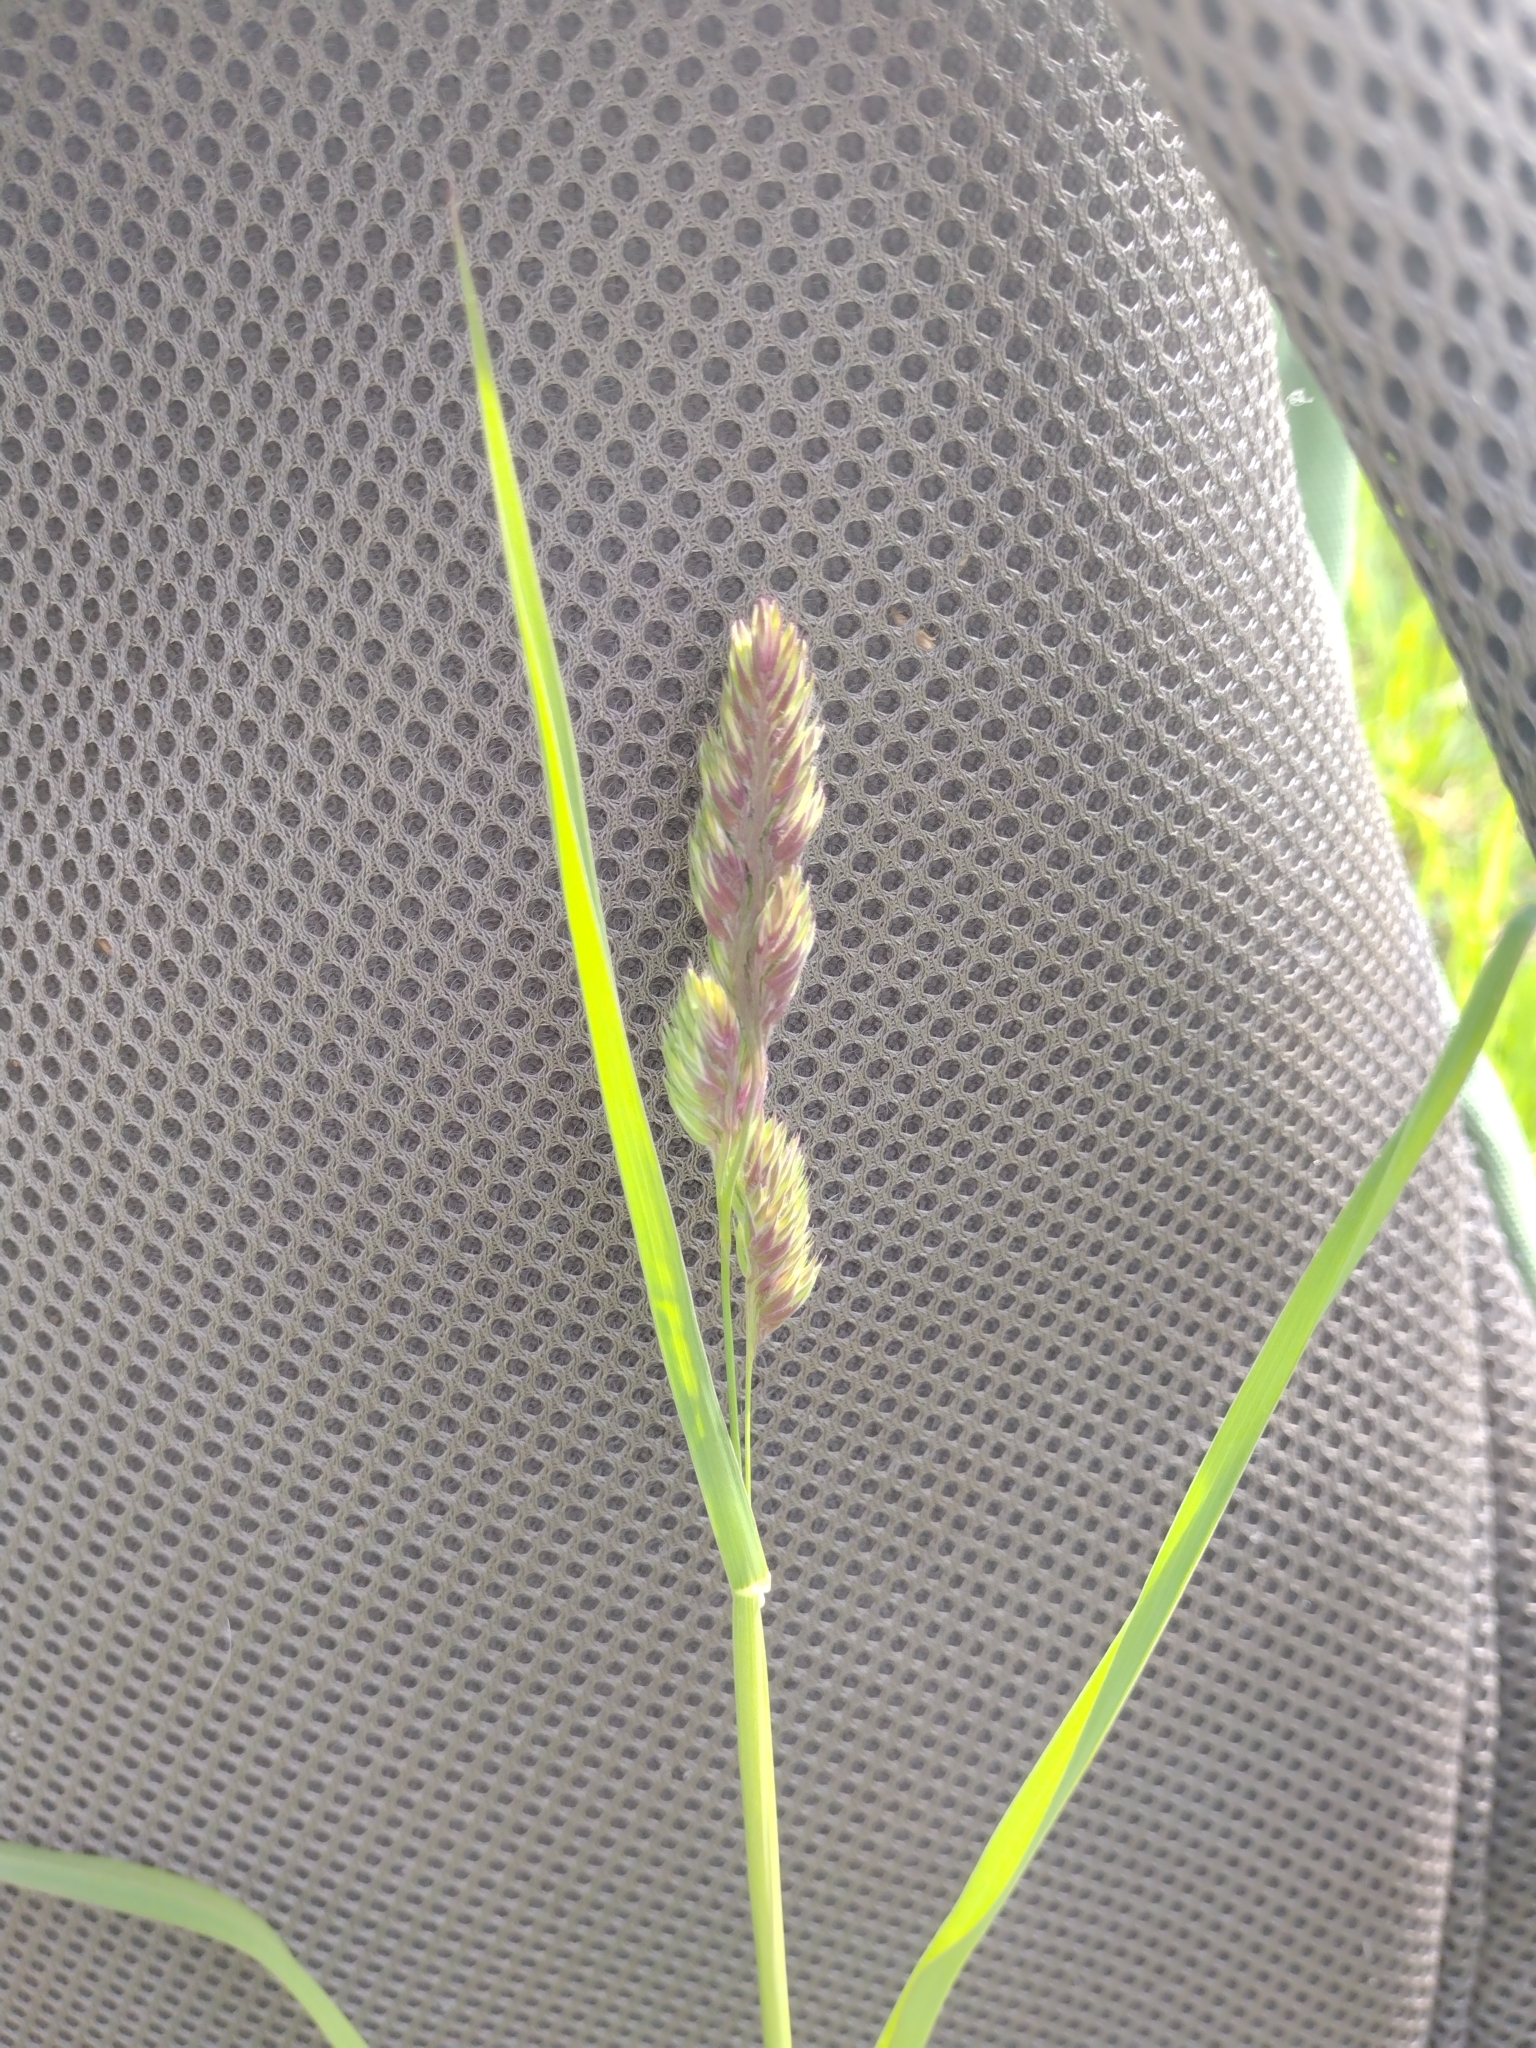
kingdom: Plantae
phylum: Tracheophyta
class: Liliopsida
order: Poales
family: Poaceae
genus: Dactylis
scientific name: Dactylis glomerata
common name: Orchardgrass
